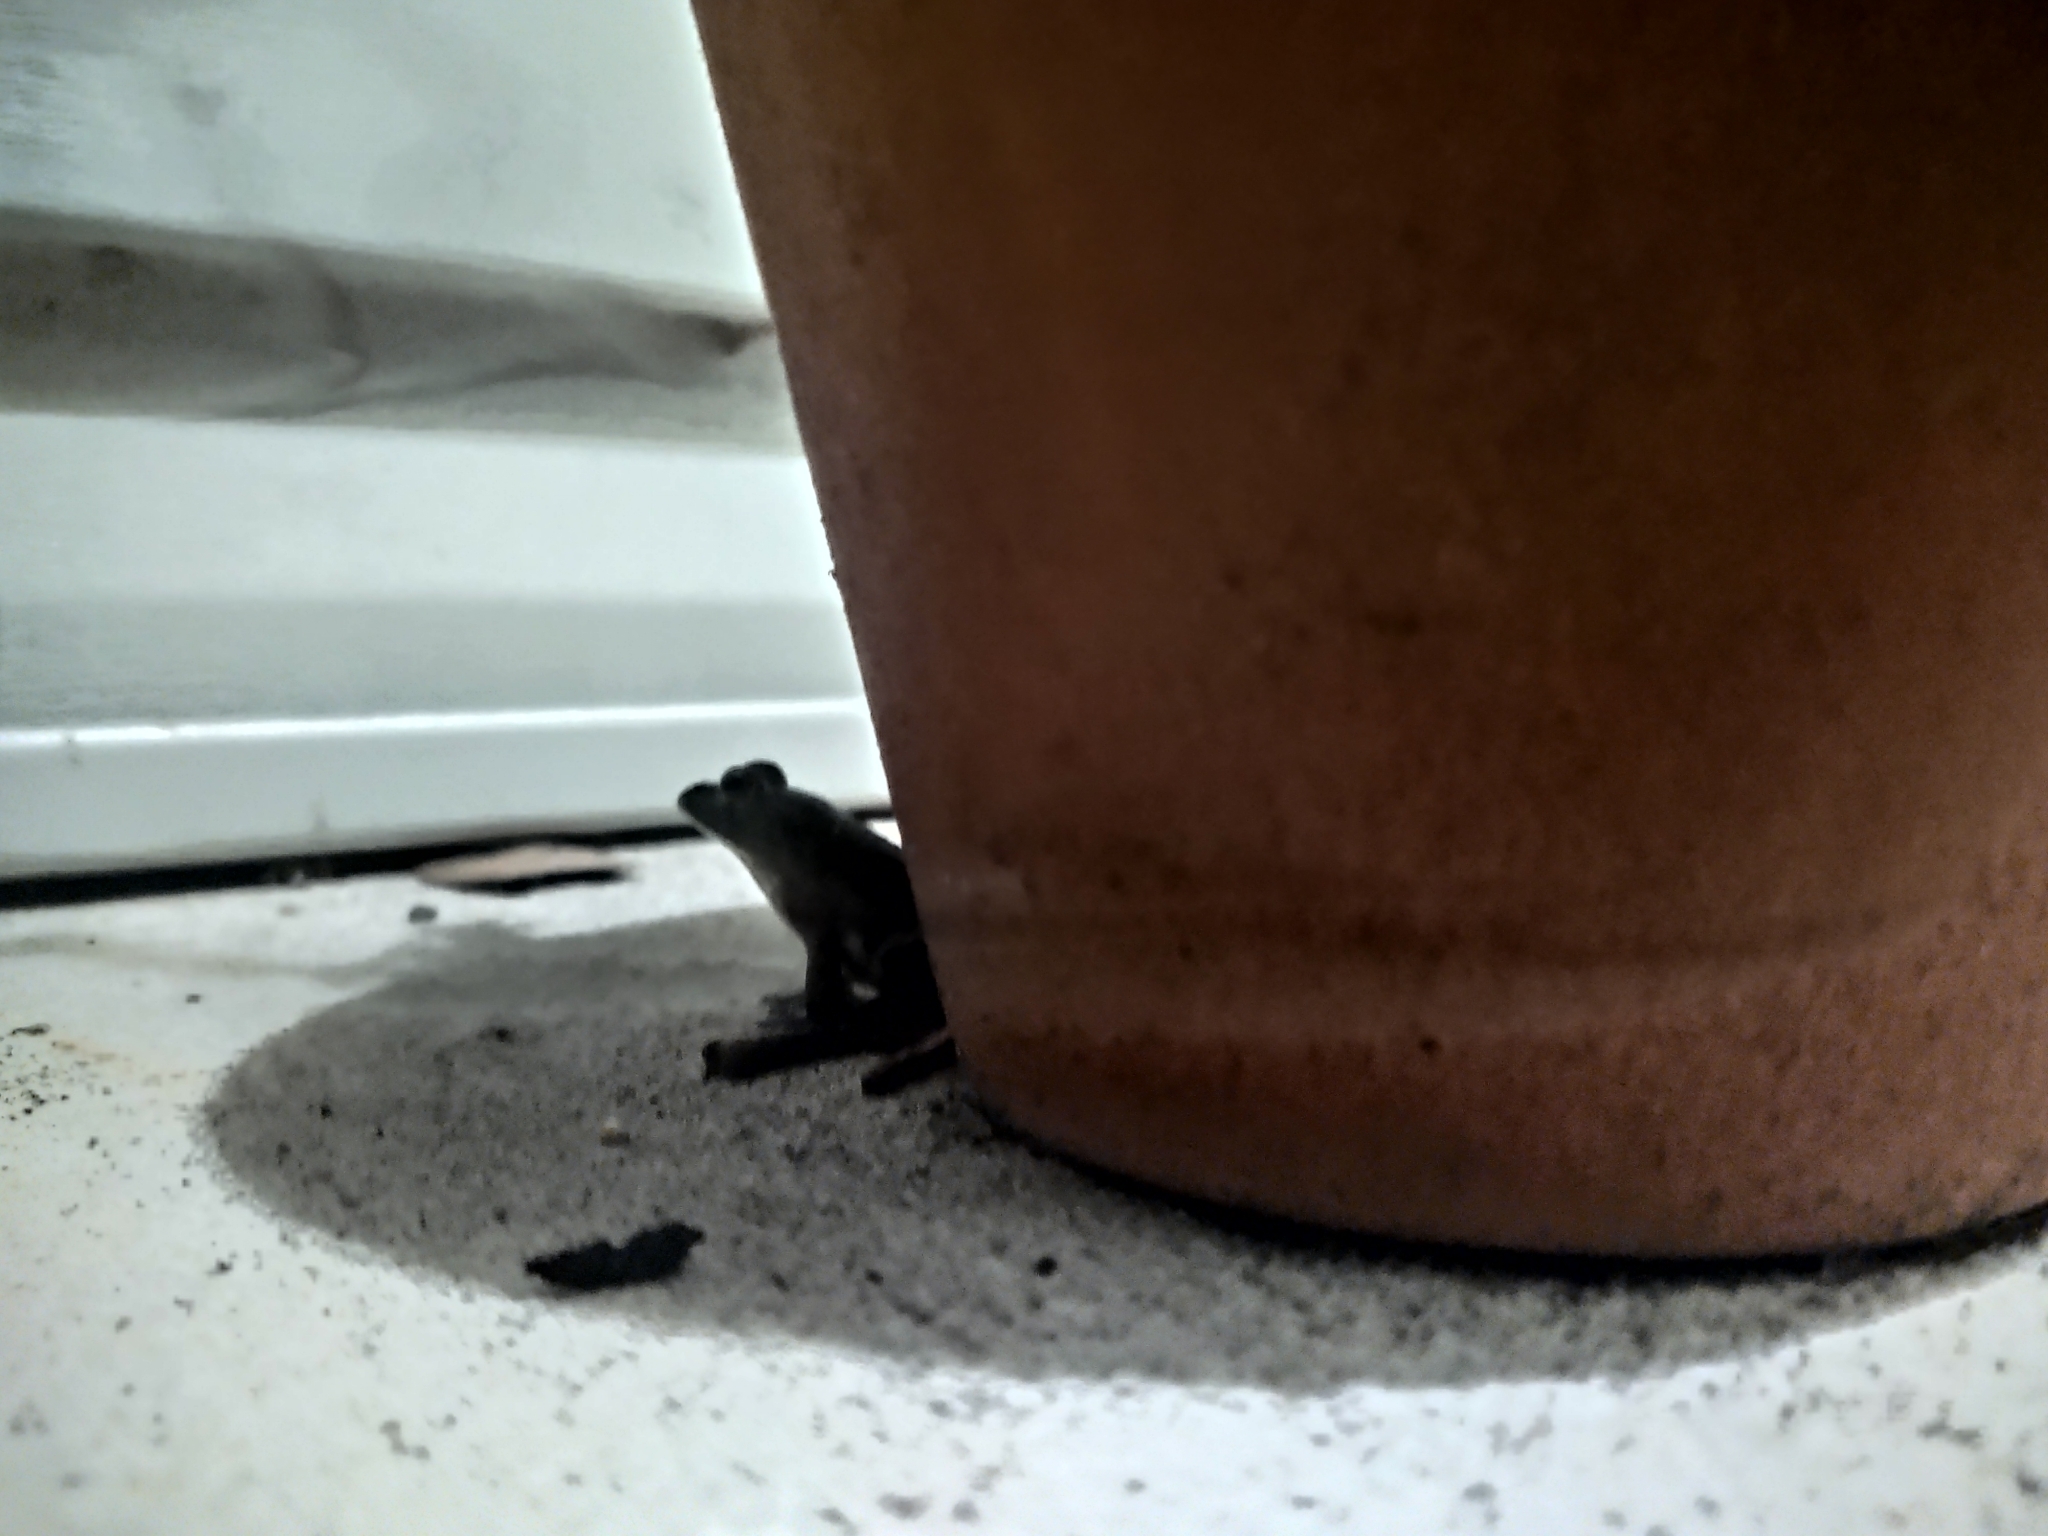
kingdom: Animalia
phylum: Chordata
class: Amphibia
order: Anura
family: Hylidae
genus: Dryophytes
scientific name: Dryophytes squirellus
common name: Squirrel treefrog
